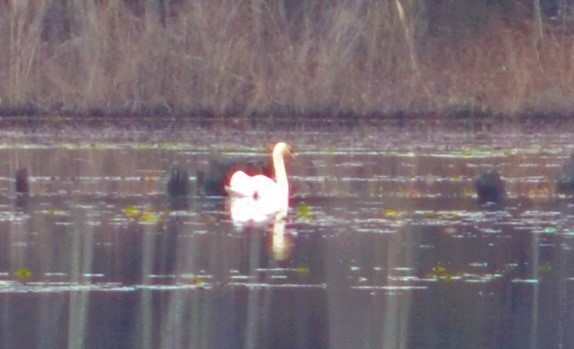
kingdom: Animalia
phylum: Chordata
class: Aves
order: Anseriformes
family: Anatidae
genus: Cygnus
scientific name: Cygnus olor
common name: Mute swan
